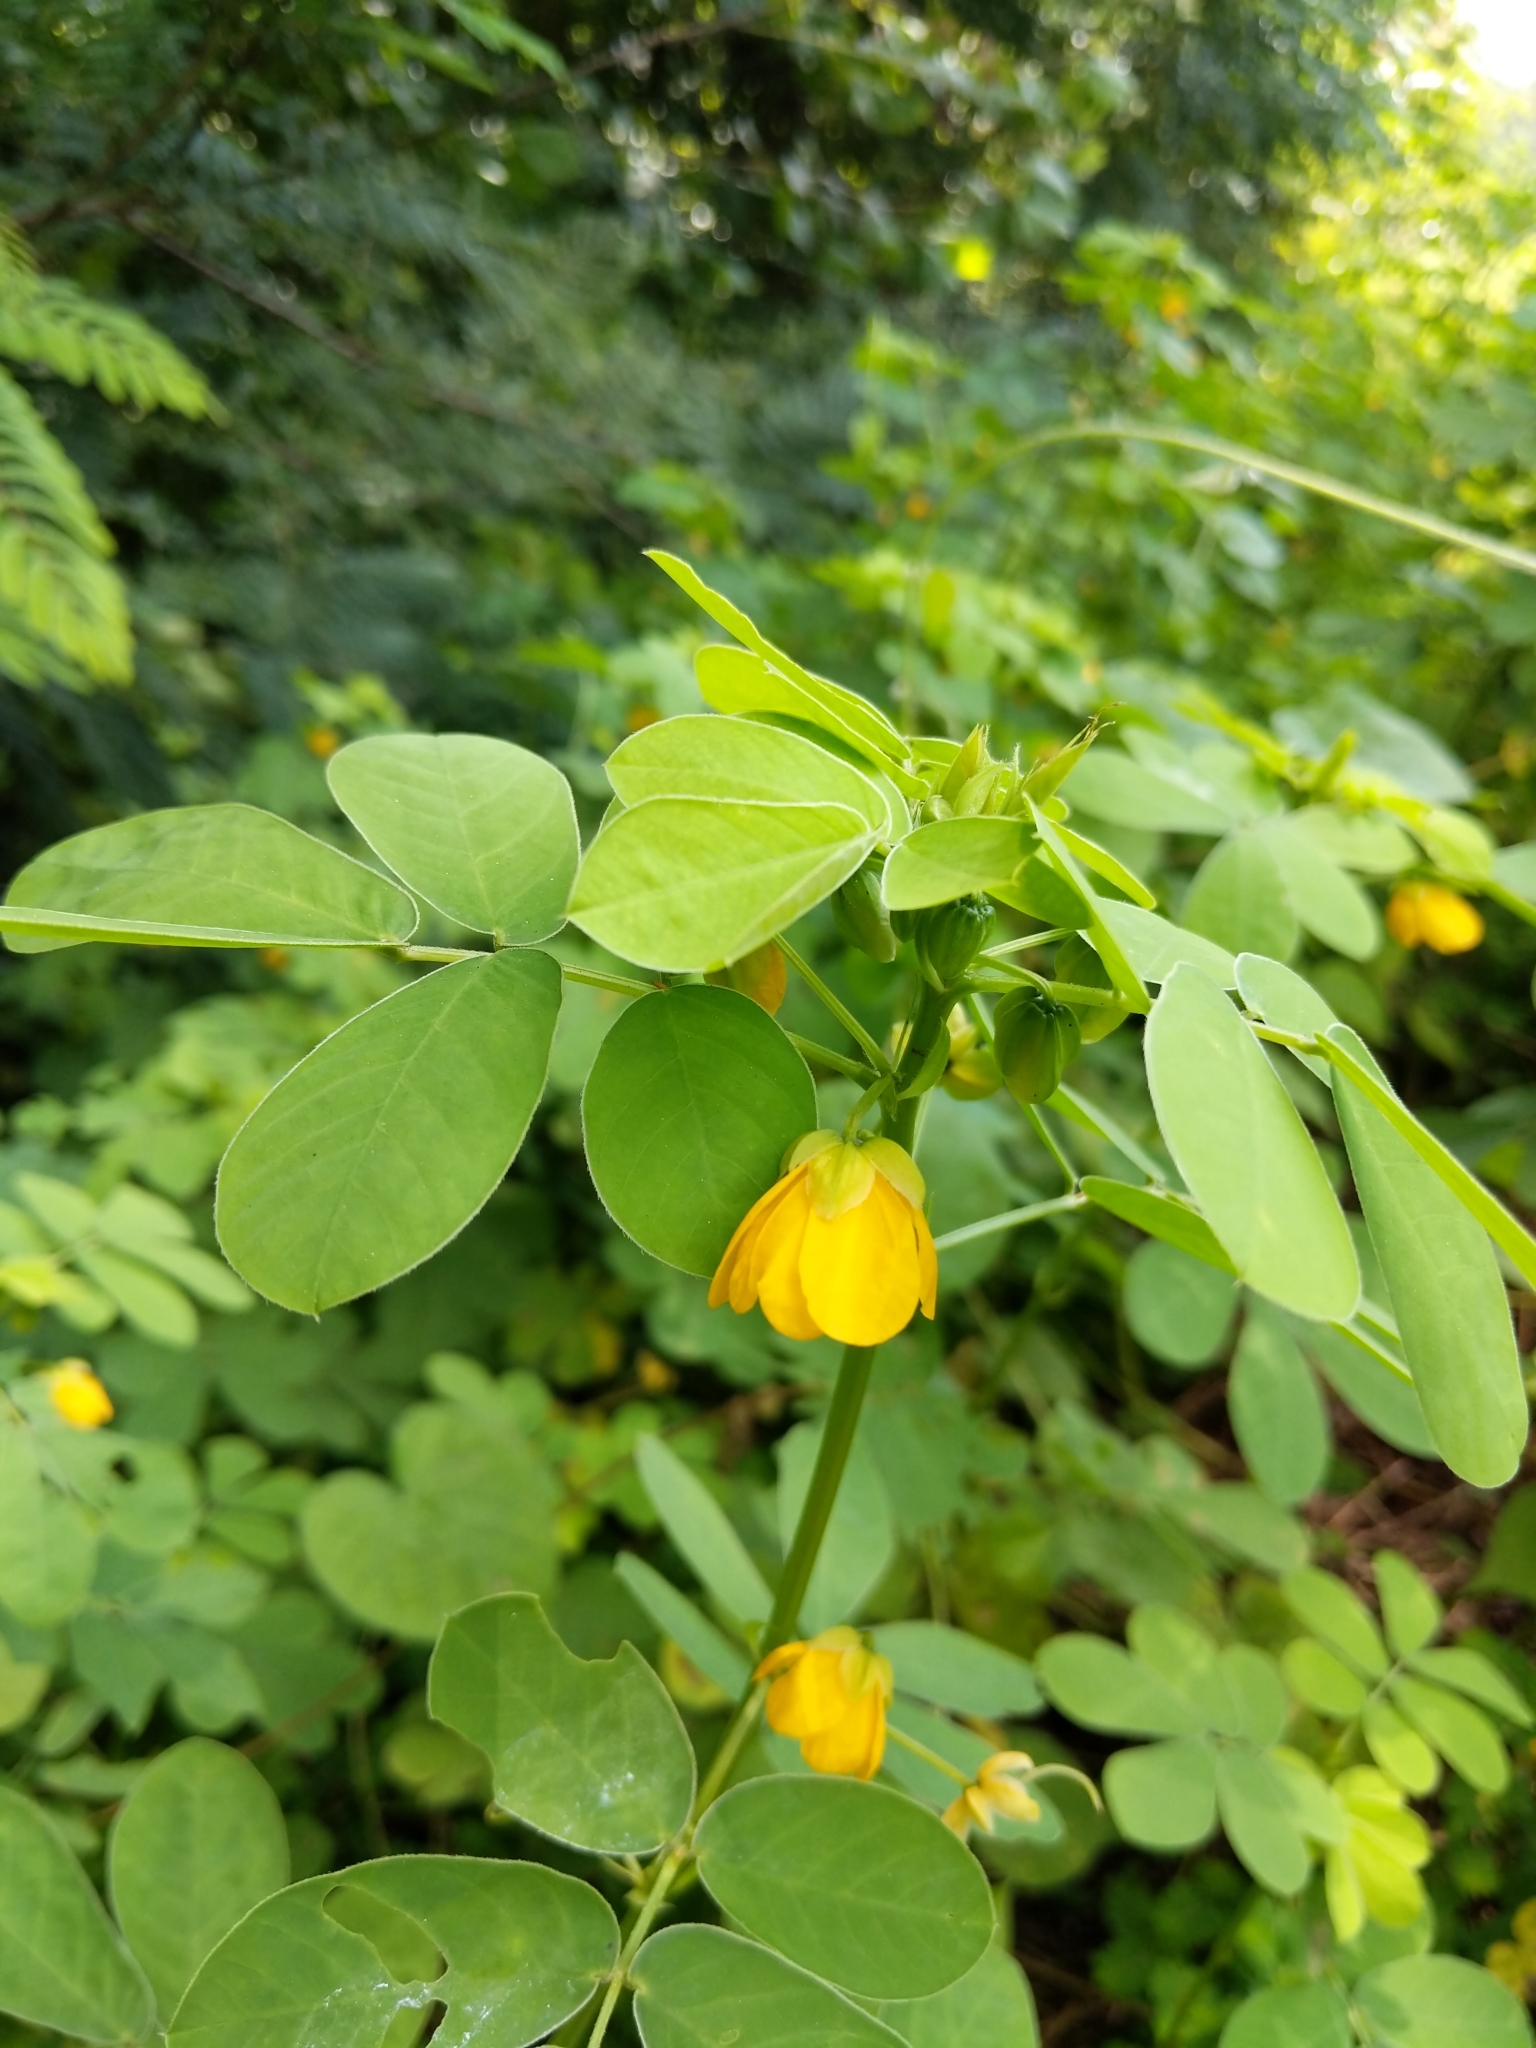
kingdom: Plantae
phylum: Tracheophyta
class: Magnoliopsida
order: Fabales
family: Fabaceae
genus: Senna
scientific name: Senna obtusifolia
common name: Java-bean
